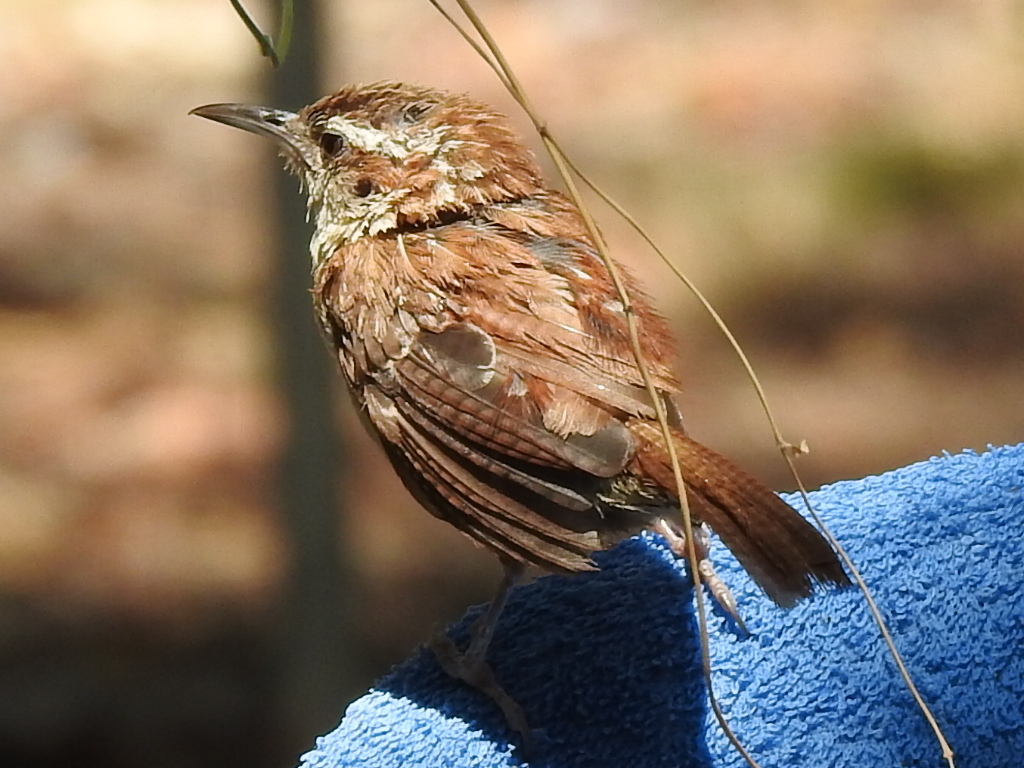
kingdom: Animalia
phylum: Chordata
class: Aves
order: Passeriformes
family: Troglodytidae
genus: Thryothorus
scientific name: Thryothorus ludovicianus
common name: Carolina wren
